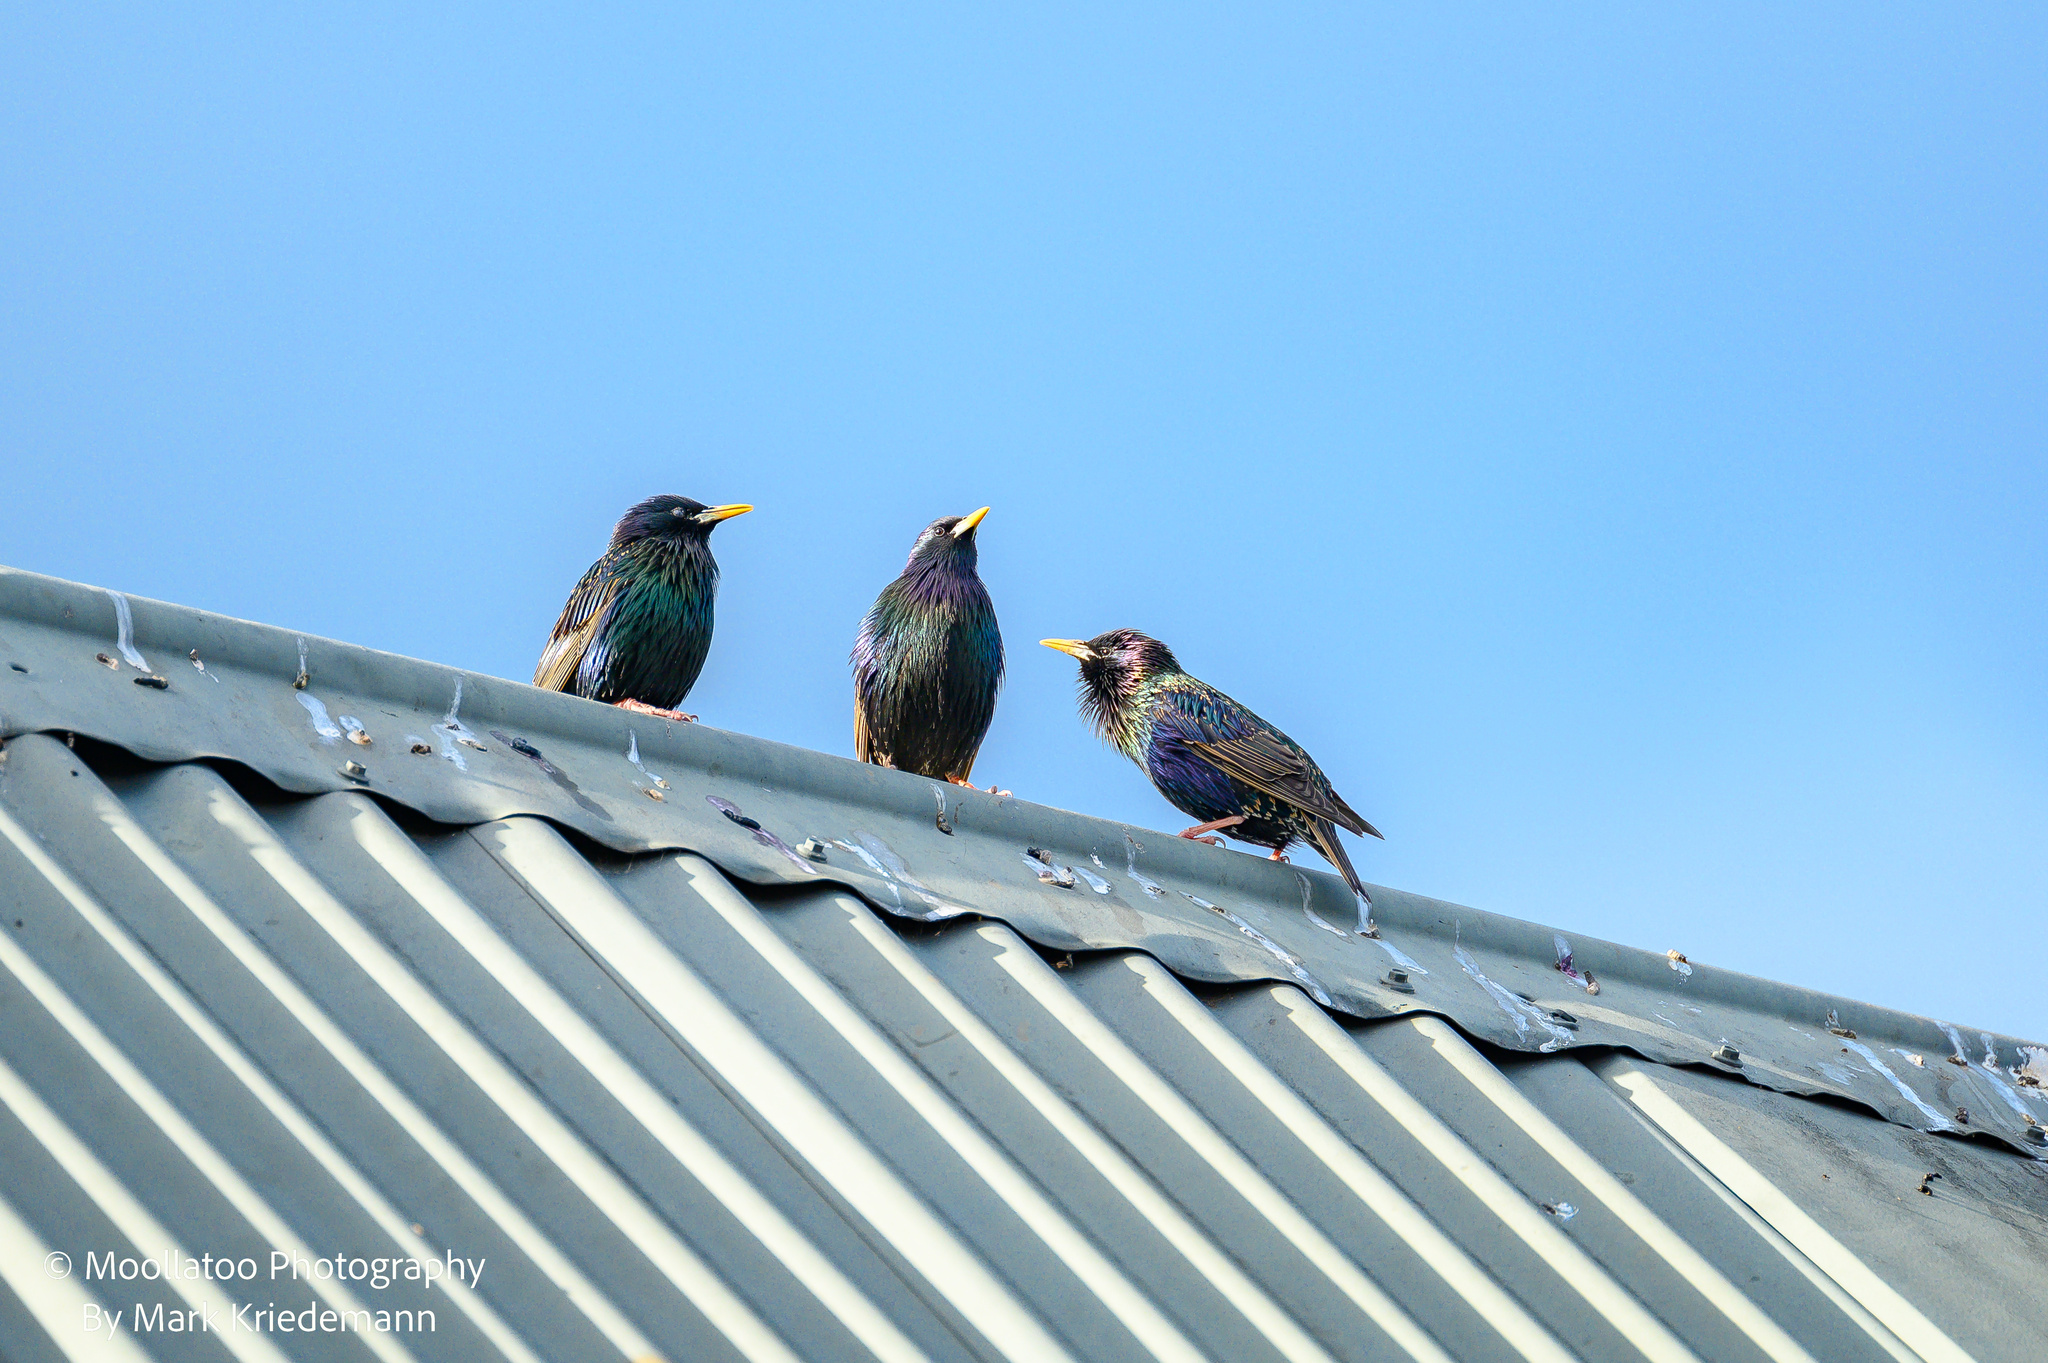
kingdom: Animalia
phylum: Chordata
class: Aves
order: Passeriformes
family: Sturnidae
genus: Sturnus
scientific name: Sturnus vulgaris
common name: Common starling
